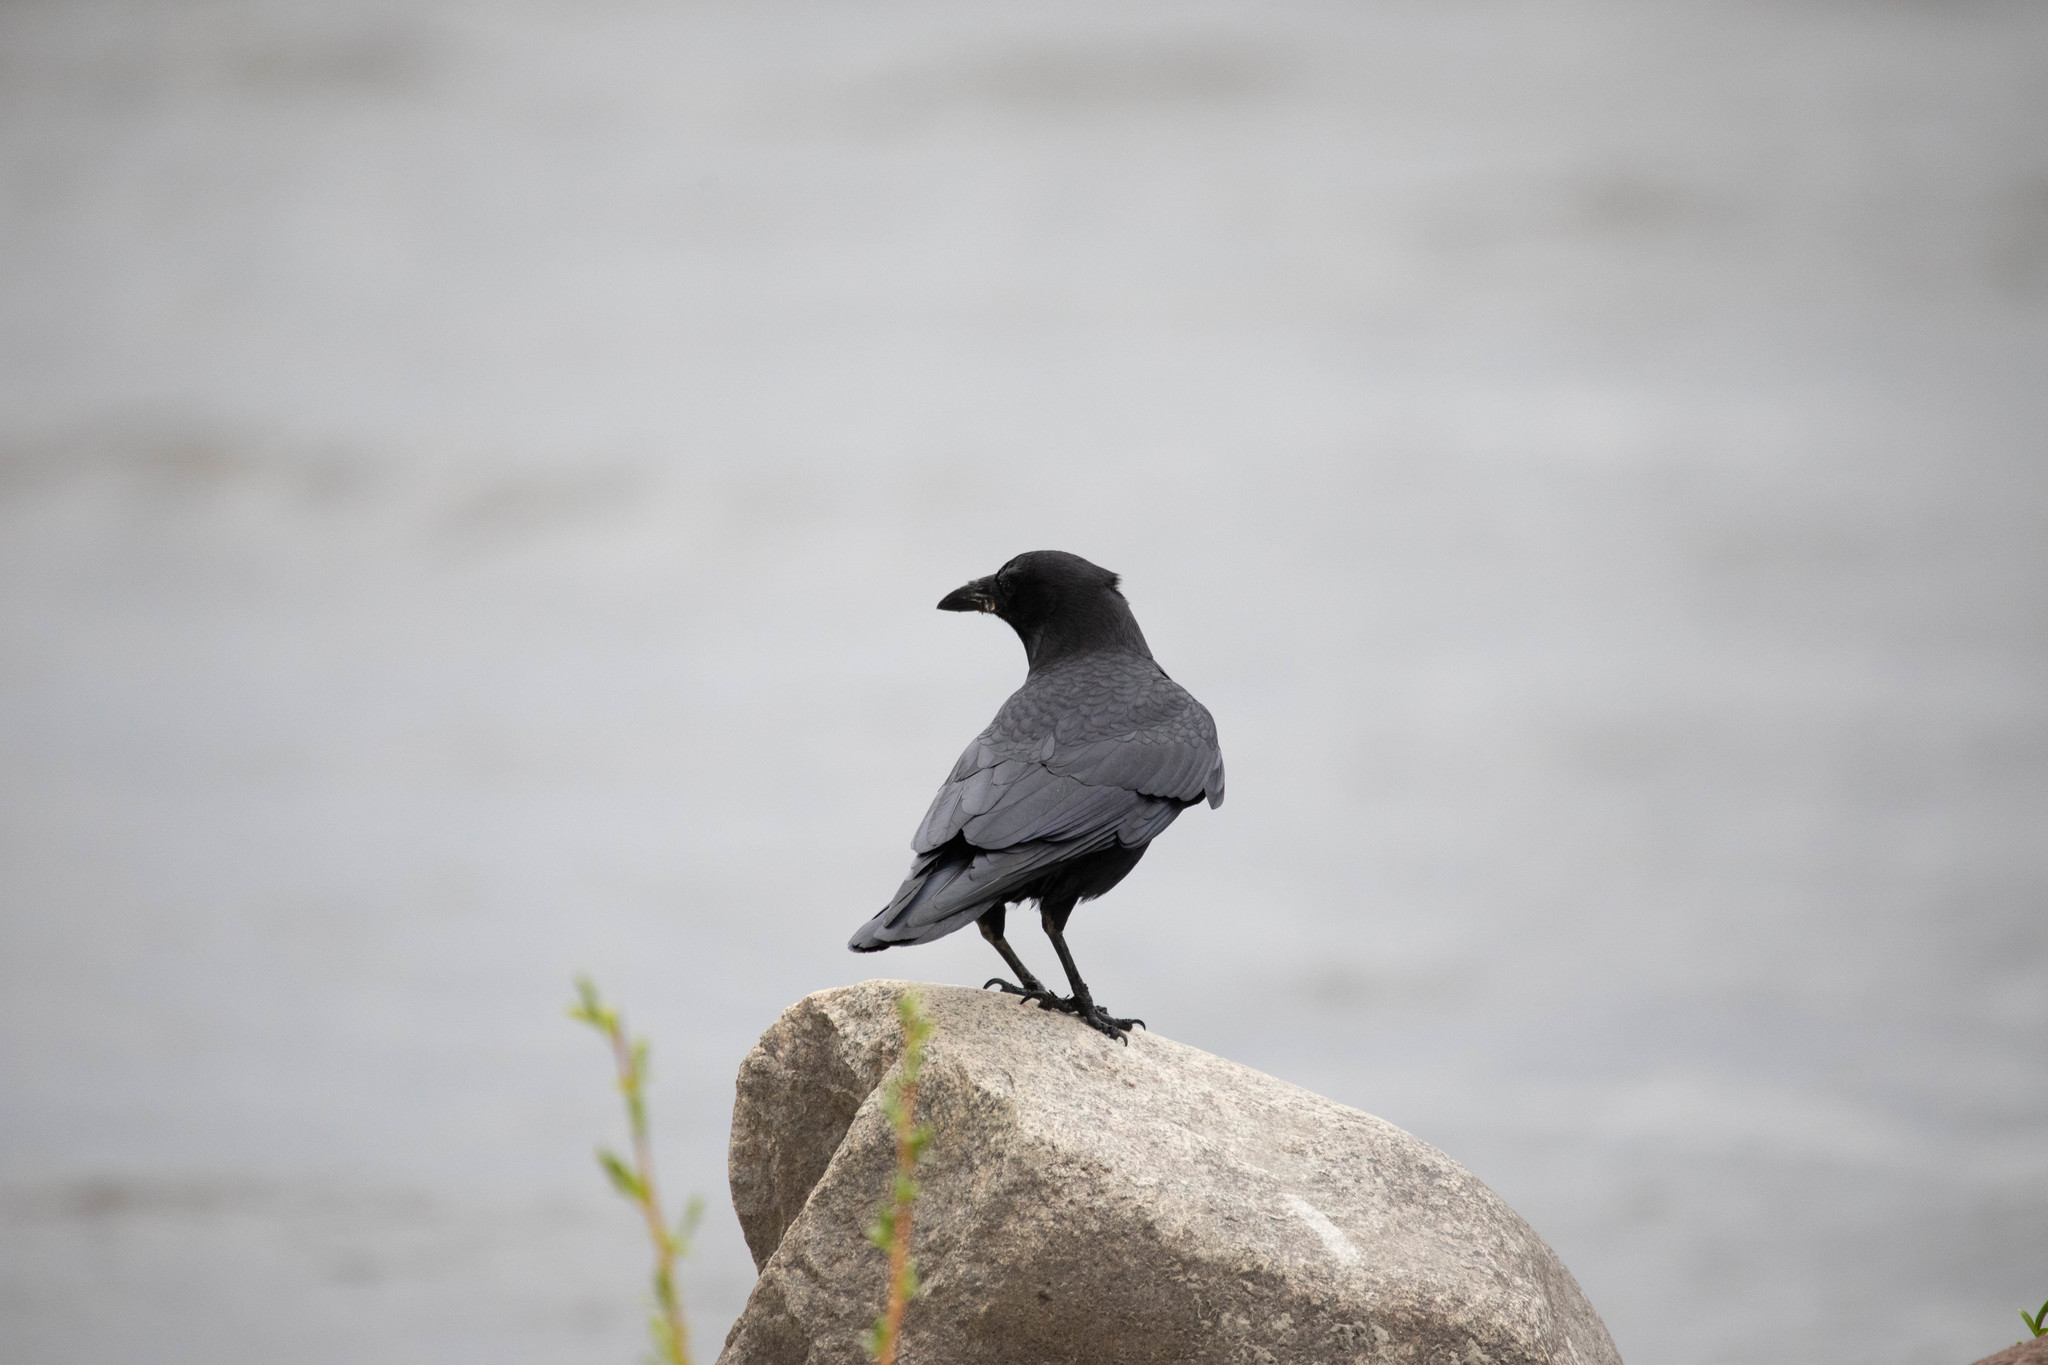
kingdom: Animalia
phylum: Chordata
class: Aves
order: Passeriformes
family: Corvidae
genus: Corvus
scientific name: Corvus brachyrhynchos
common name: American crow
